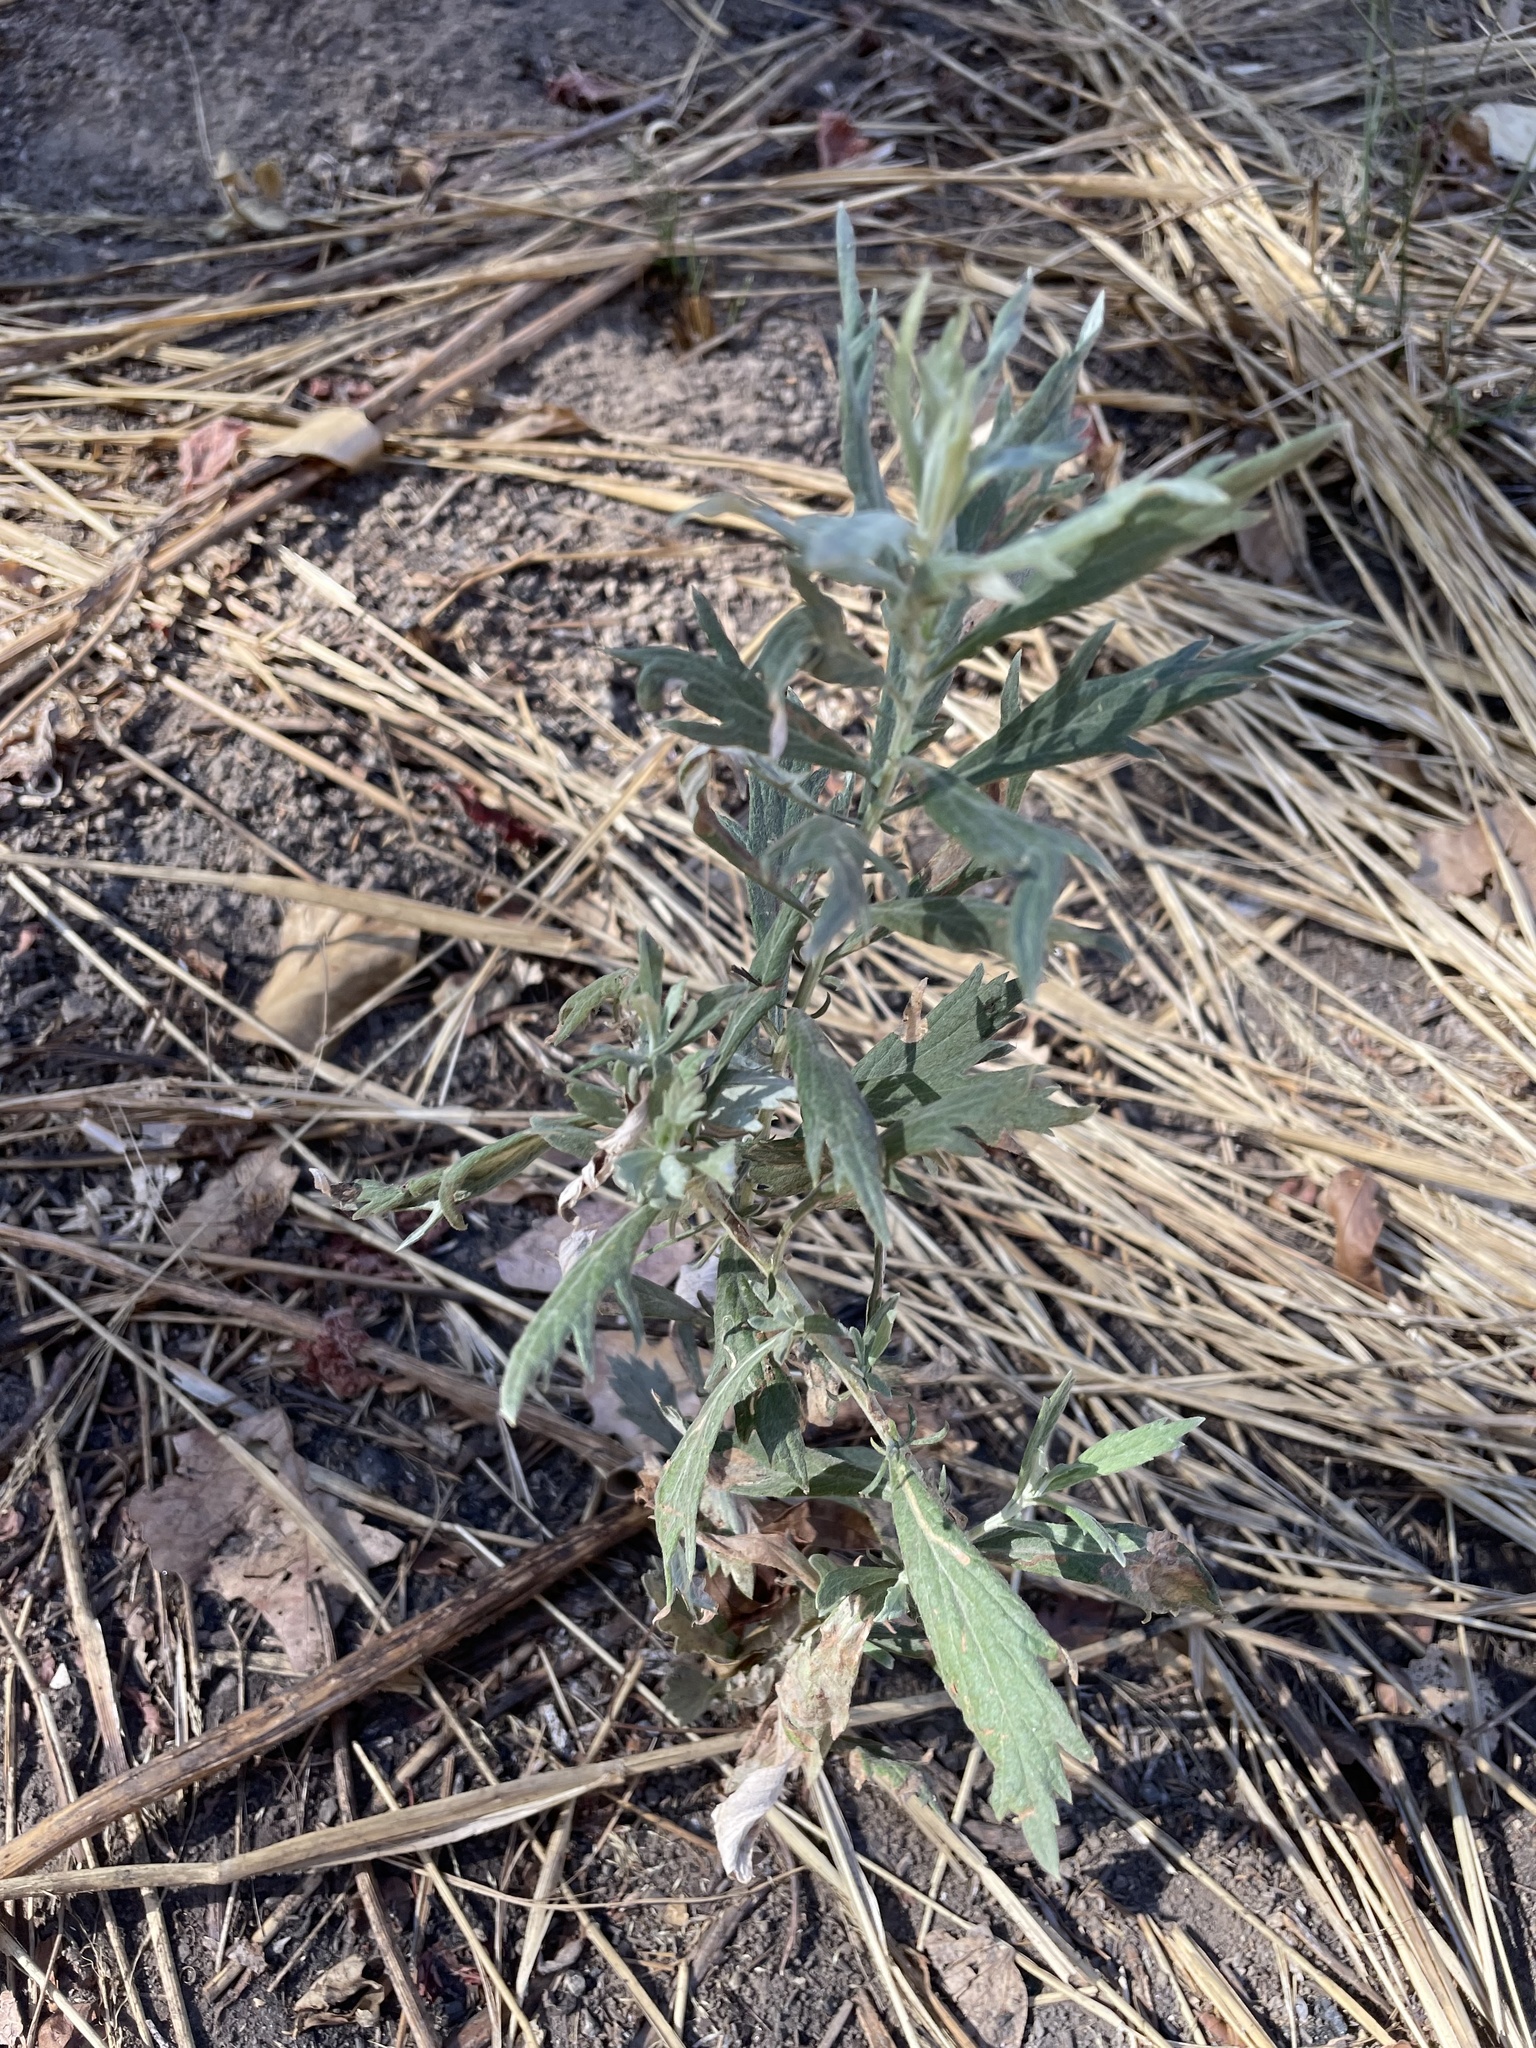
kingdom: Plantae
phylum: Tracheophyta
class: Magnoliopsida
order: Asterales
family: Asteraceae
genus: Artemisia
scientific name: Artemisia douglasiana
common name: Northwest mugwort
